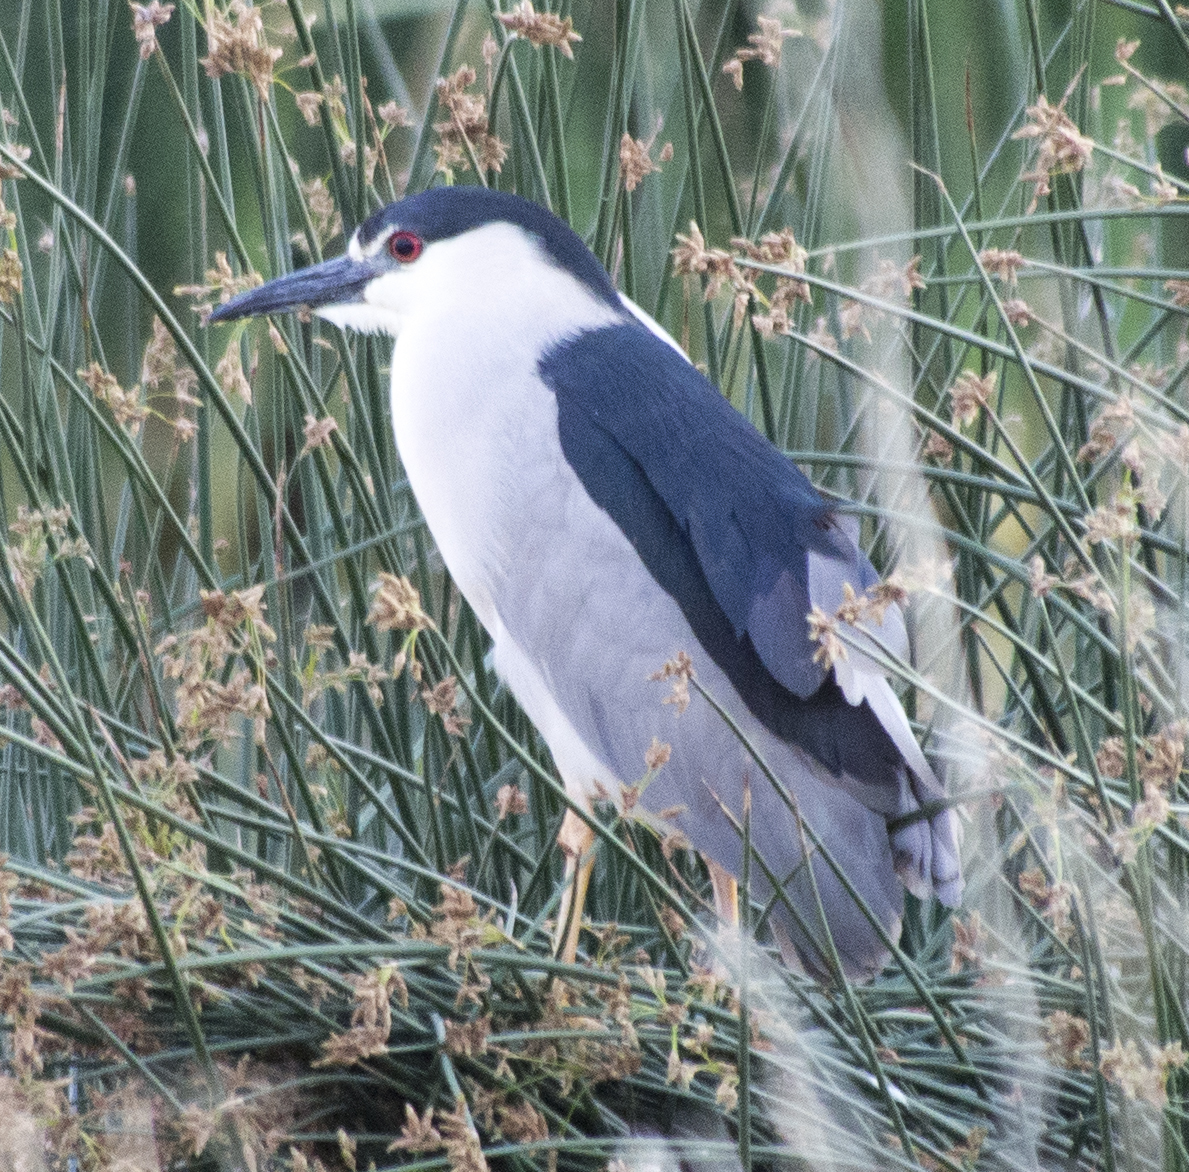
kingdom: Animalia
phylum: Chordata
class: Aves
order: Pelecaniformes
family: Ardeidae
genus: Nycticorax
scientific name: Nycticorax nycticorax
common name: Black-crowned night heron
